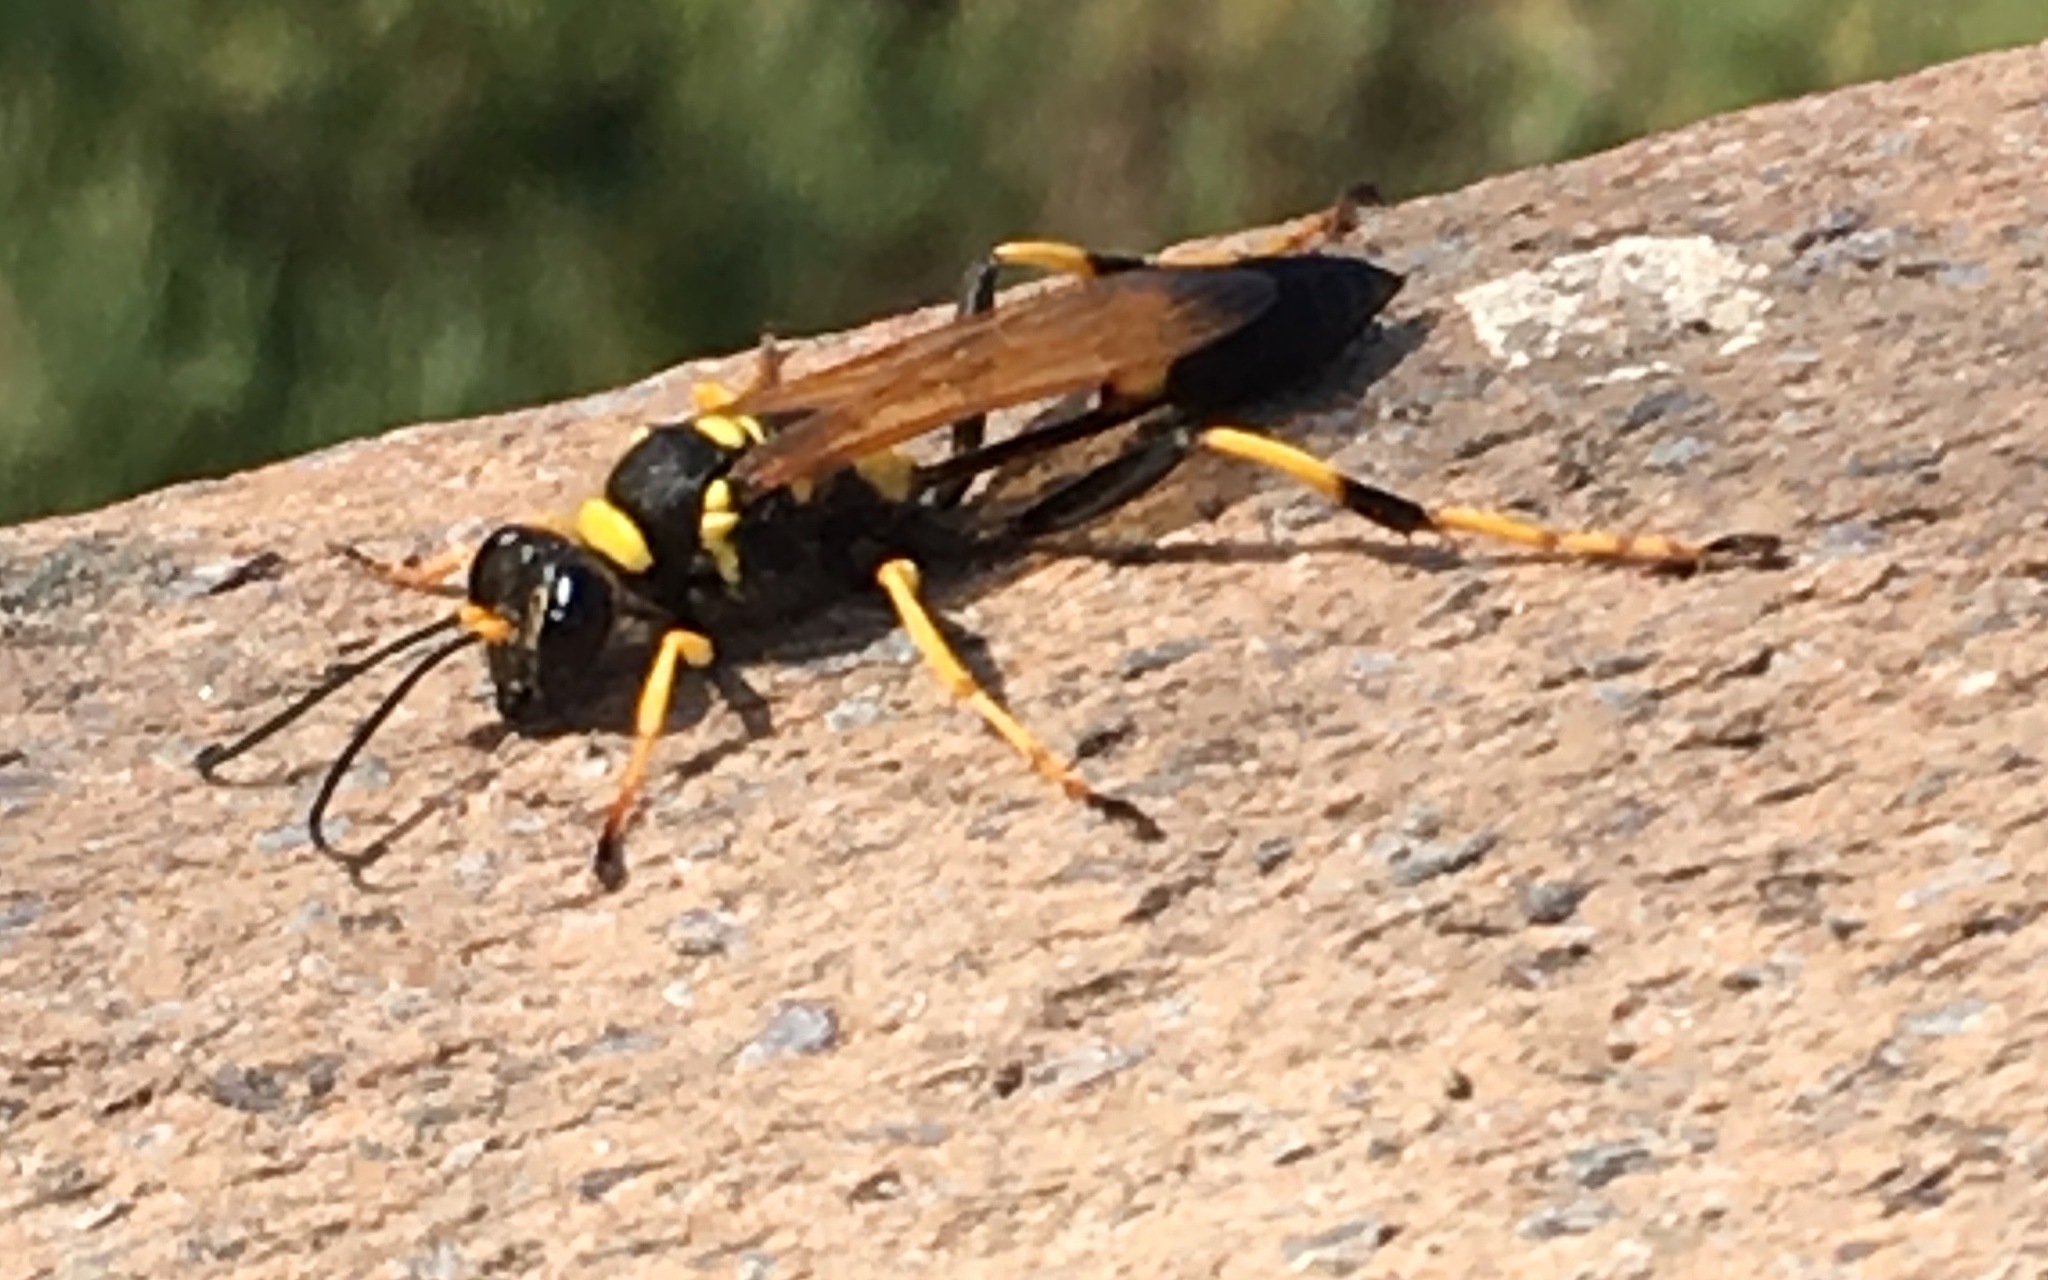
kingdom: Animalia
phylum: Arthropoda
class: Insecta
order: Hymenoptera
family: Sphecidae
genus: Sceliphron
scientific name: Sceliphron caementarium
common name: Mud dauber
